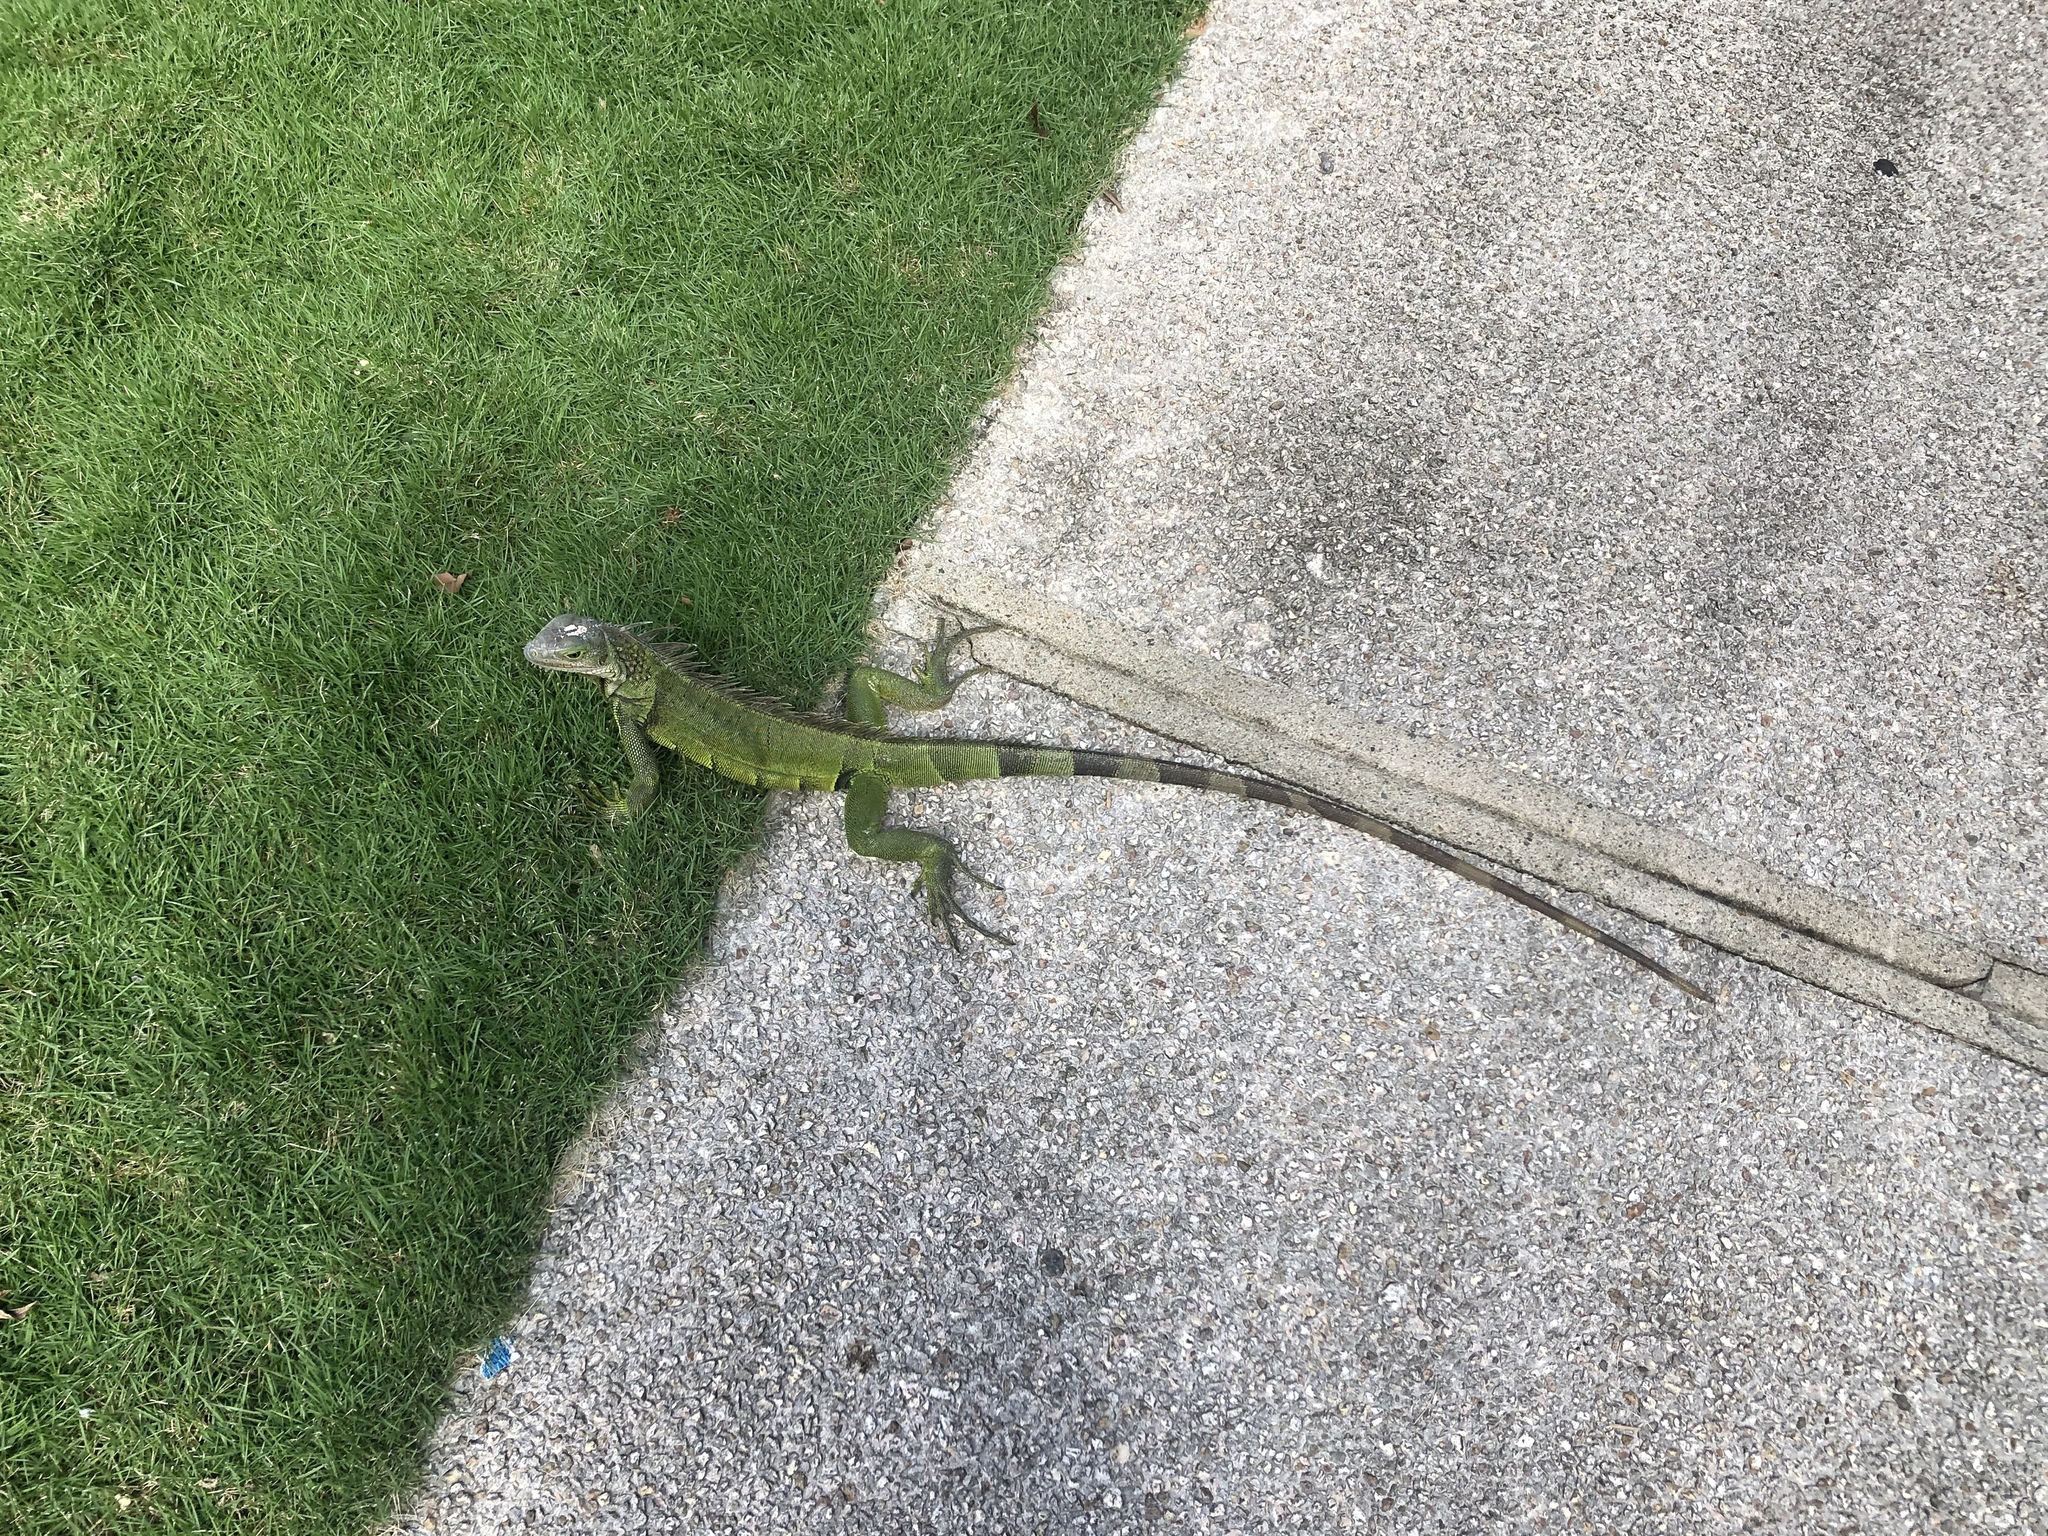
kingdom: Animalia
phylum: Chordata
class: Squamata
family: Iguanidae
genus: Iguana
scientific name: Iguana iguana
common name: Green iguana
